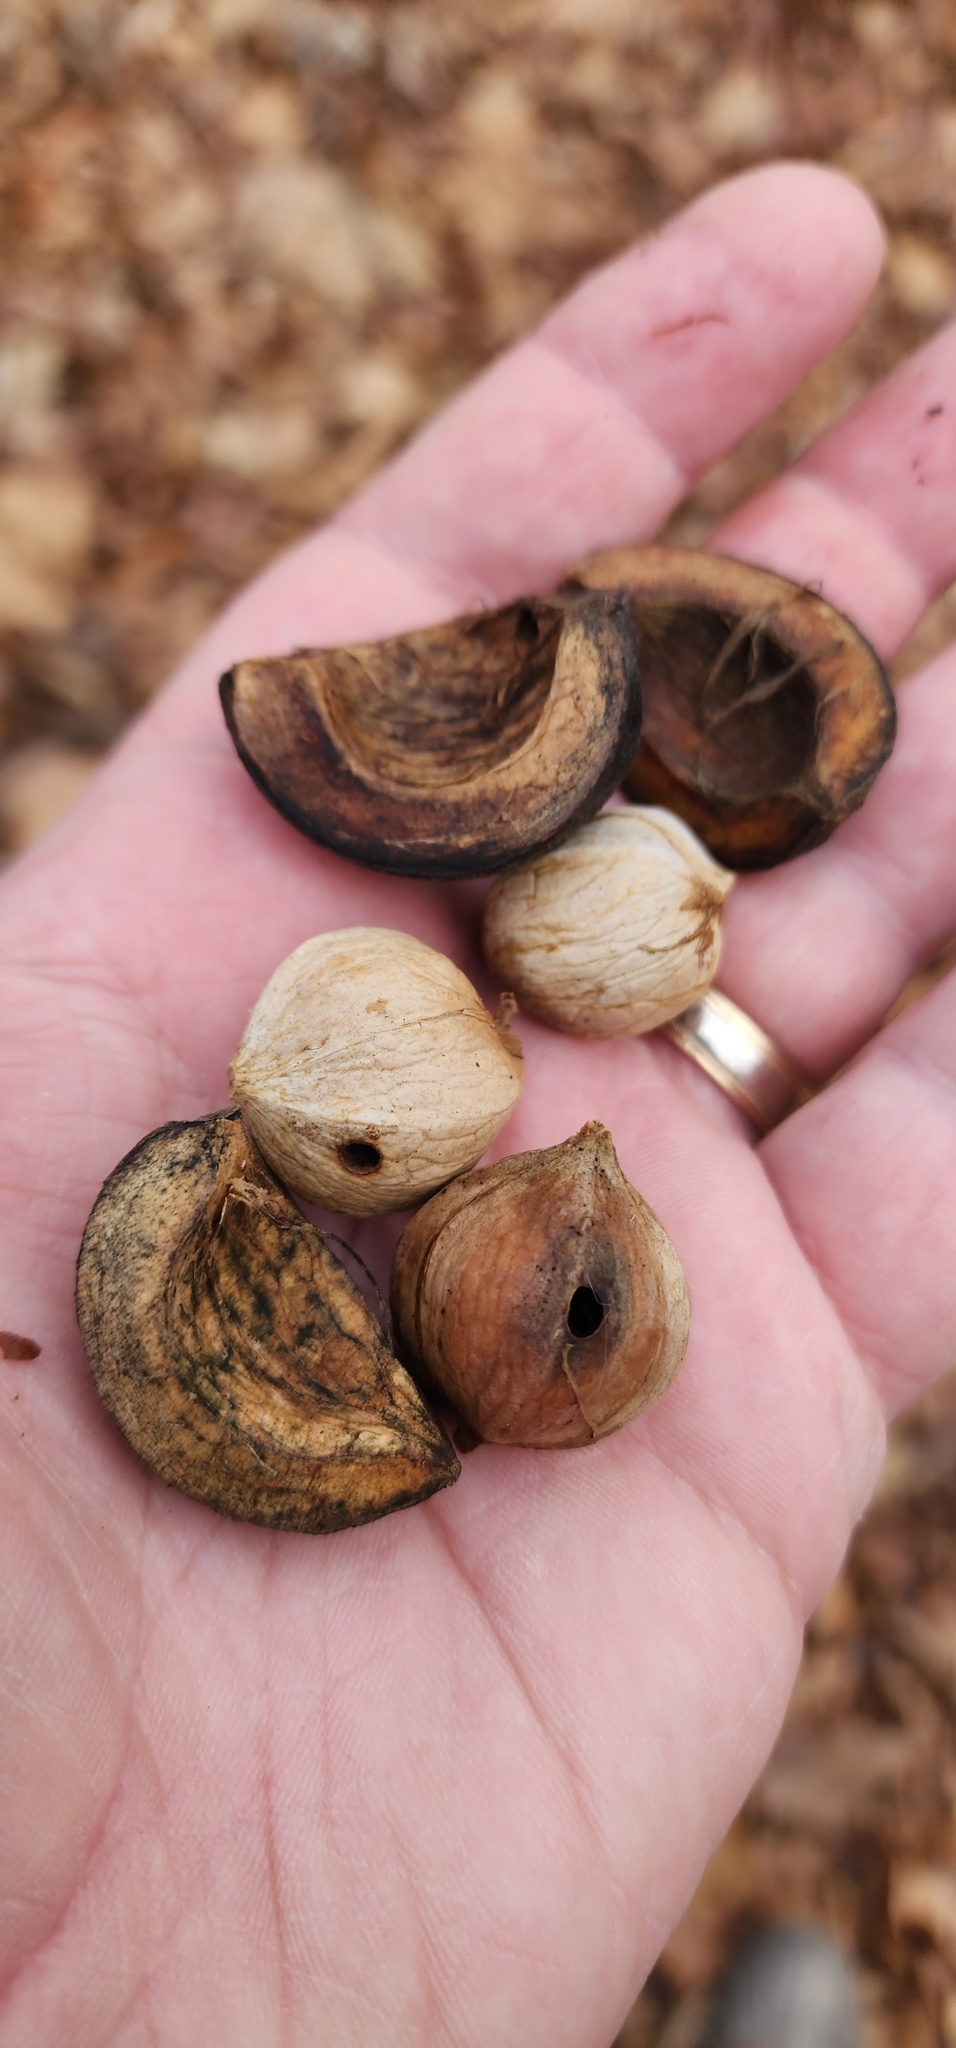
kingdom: Plantae
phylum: Tracheophyta
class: Magnoliopsida
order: Fagales
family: Juglandaceae
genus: Carya
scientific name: Carya ovata
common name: Shagbark hickory
